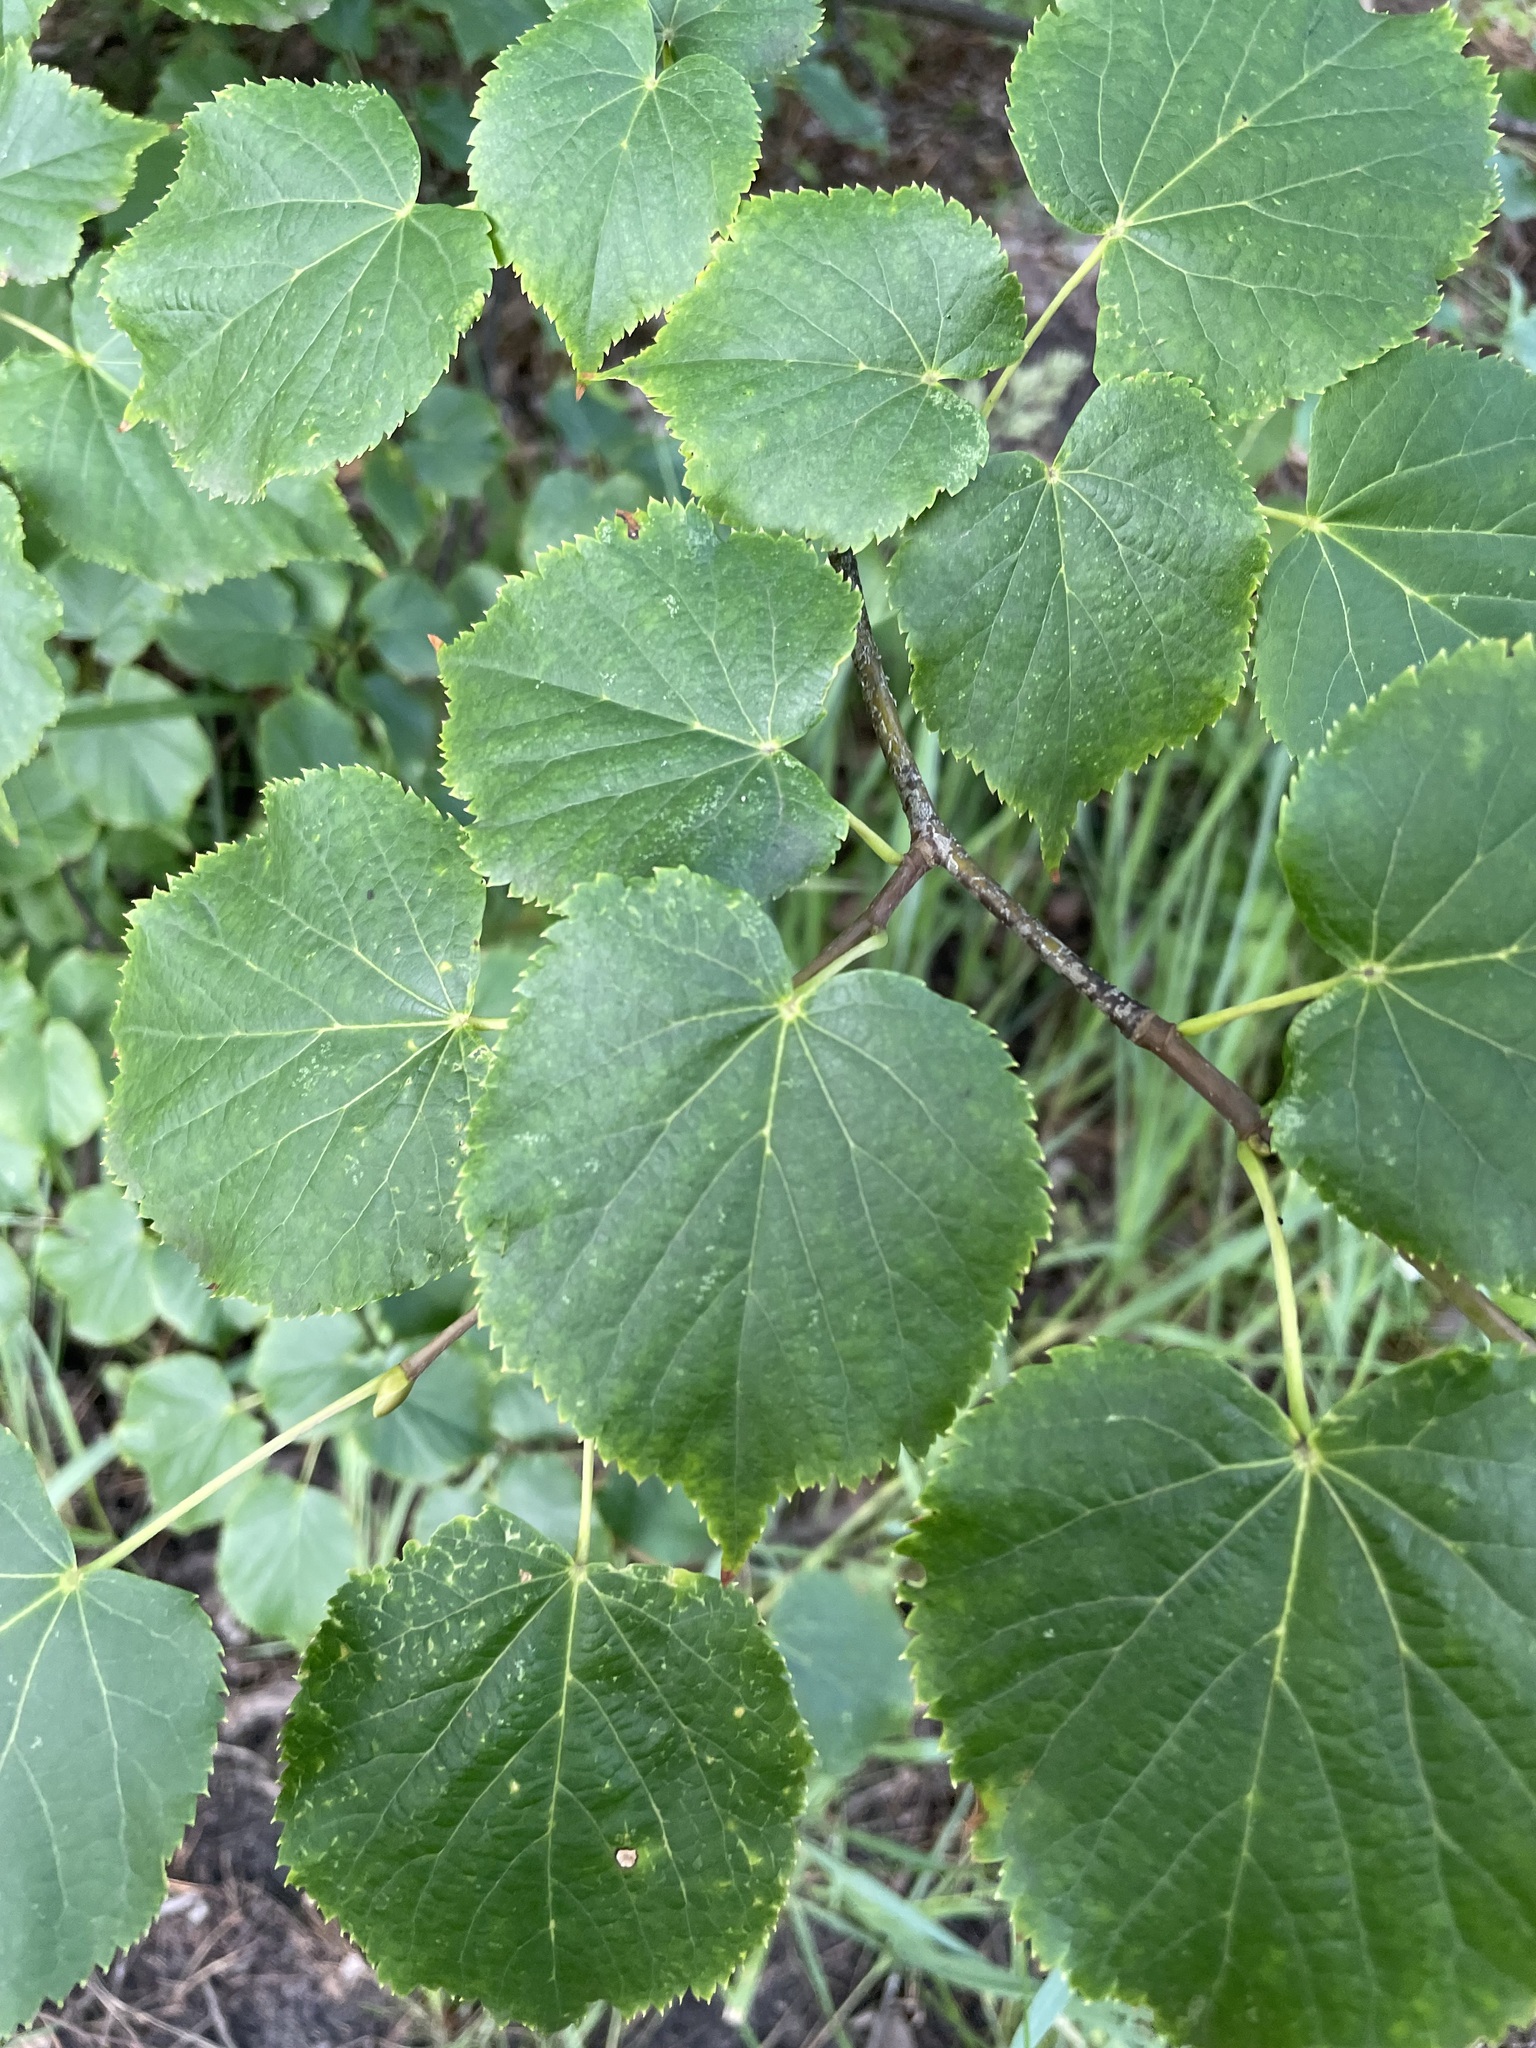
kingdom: Plantae
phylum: Tracheophyta
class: Magnoliopsida
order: Malvales
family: Malvaceae
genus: Tilia
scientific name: Tilia cordata
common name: Small-leaved lime
